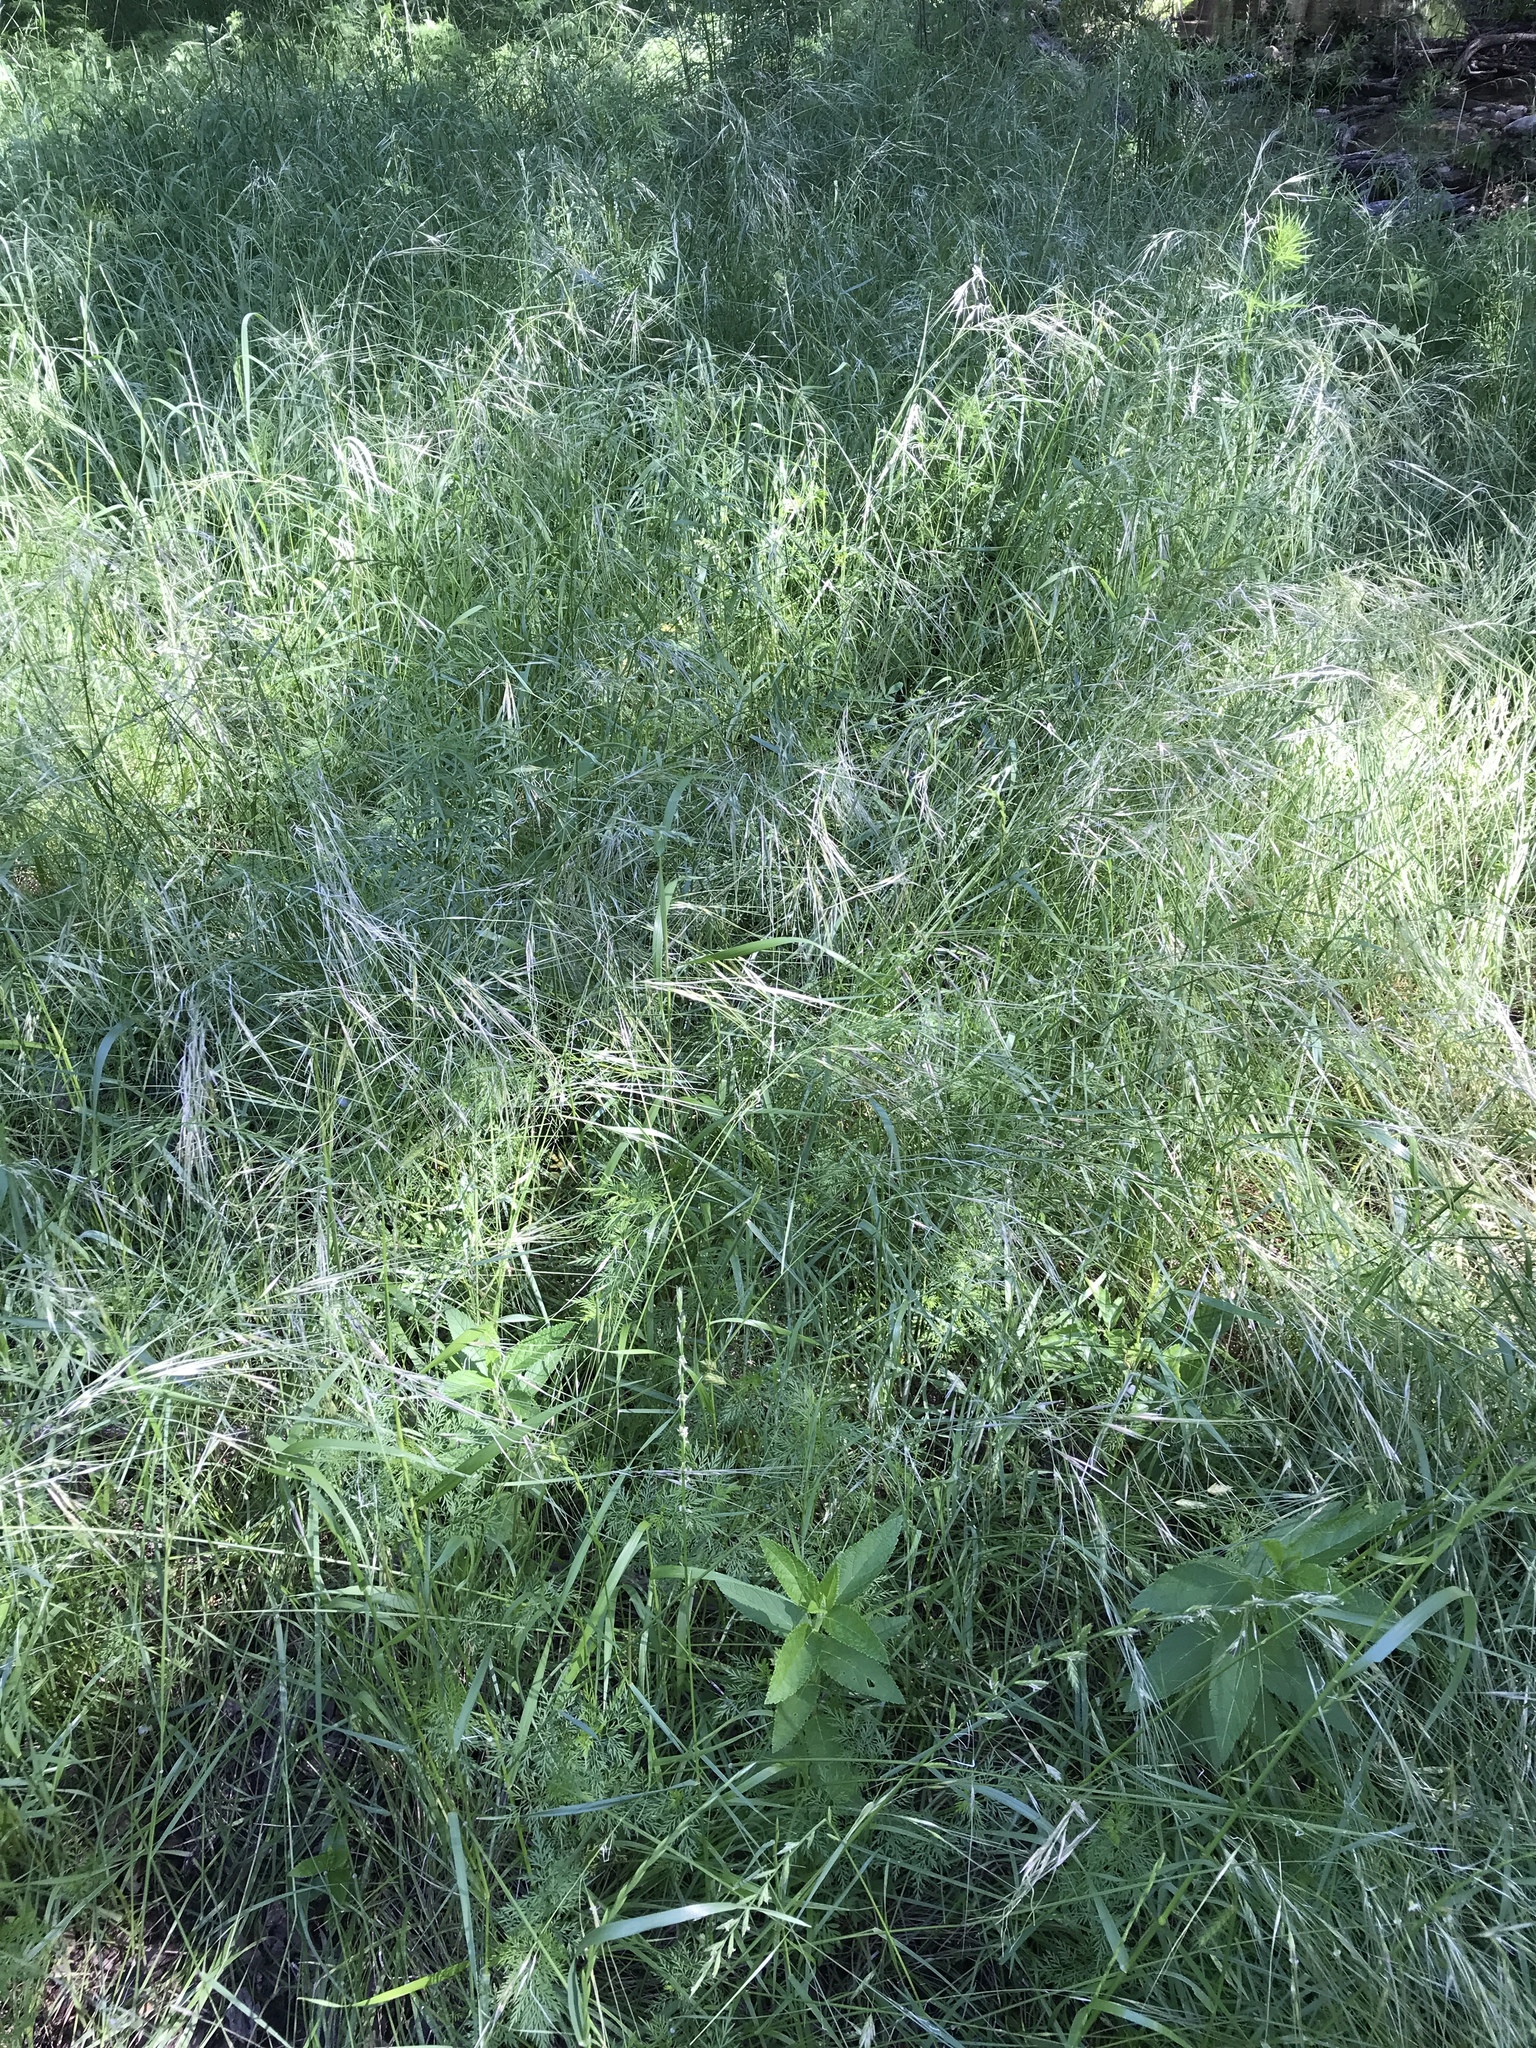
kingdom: Plantae
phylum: Tracheophyta
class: Liliopsida
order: Poales
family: Poaceae
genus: Nassella
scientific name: Nassella leucotricha
